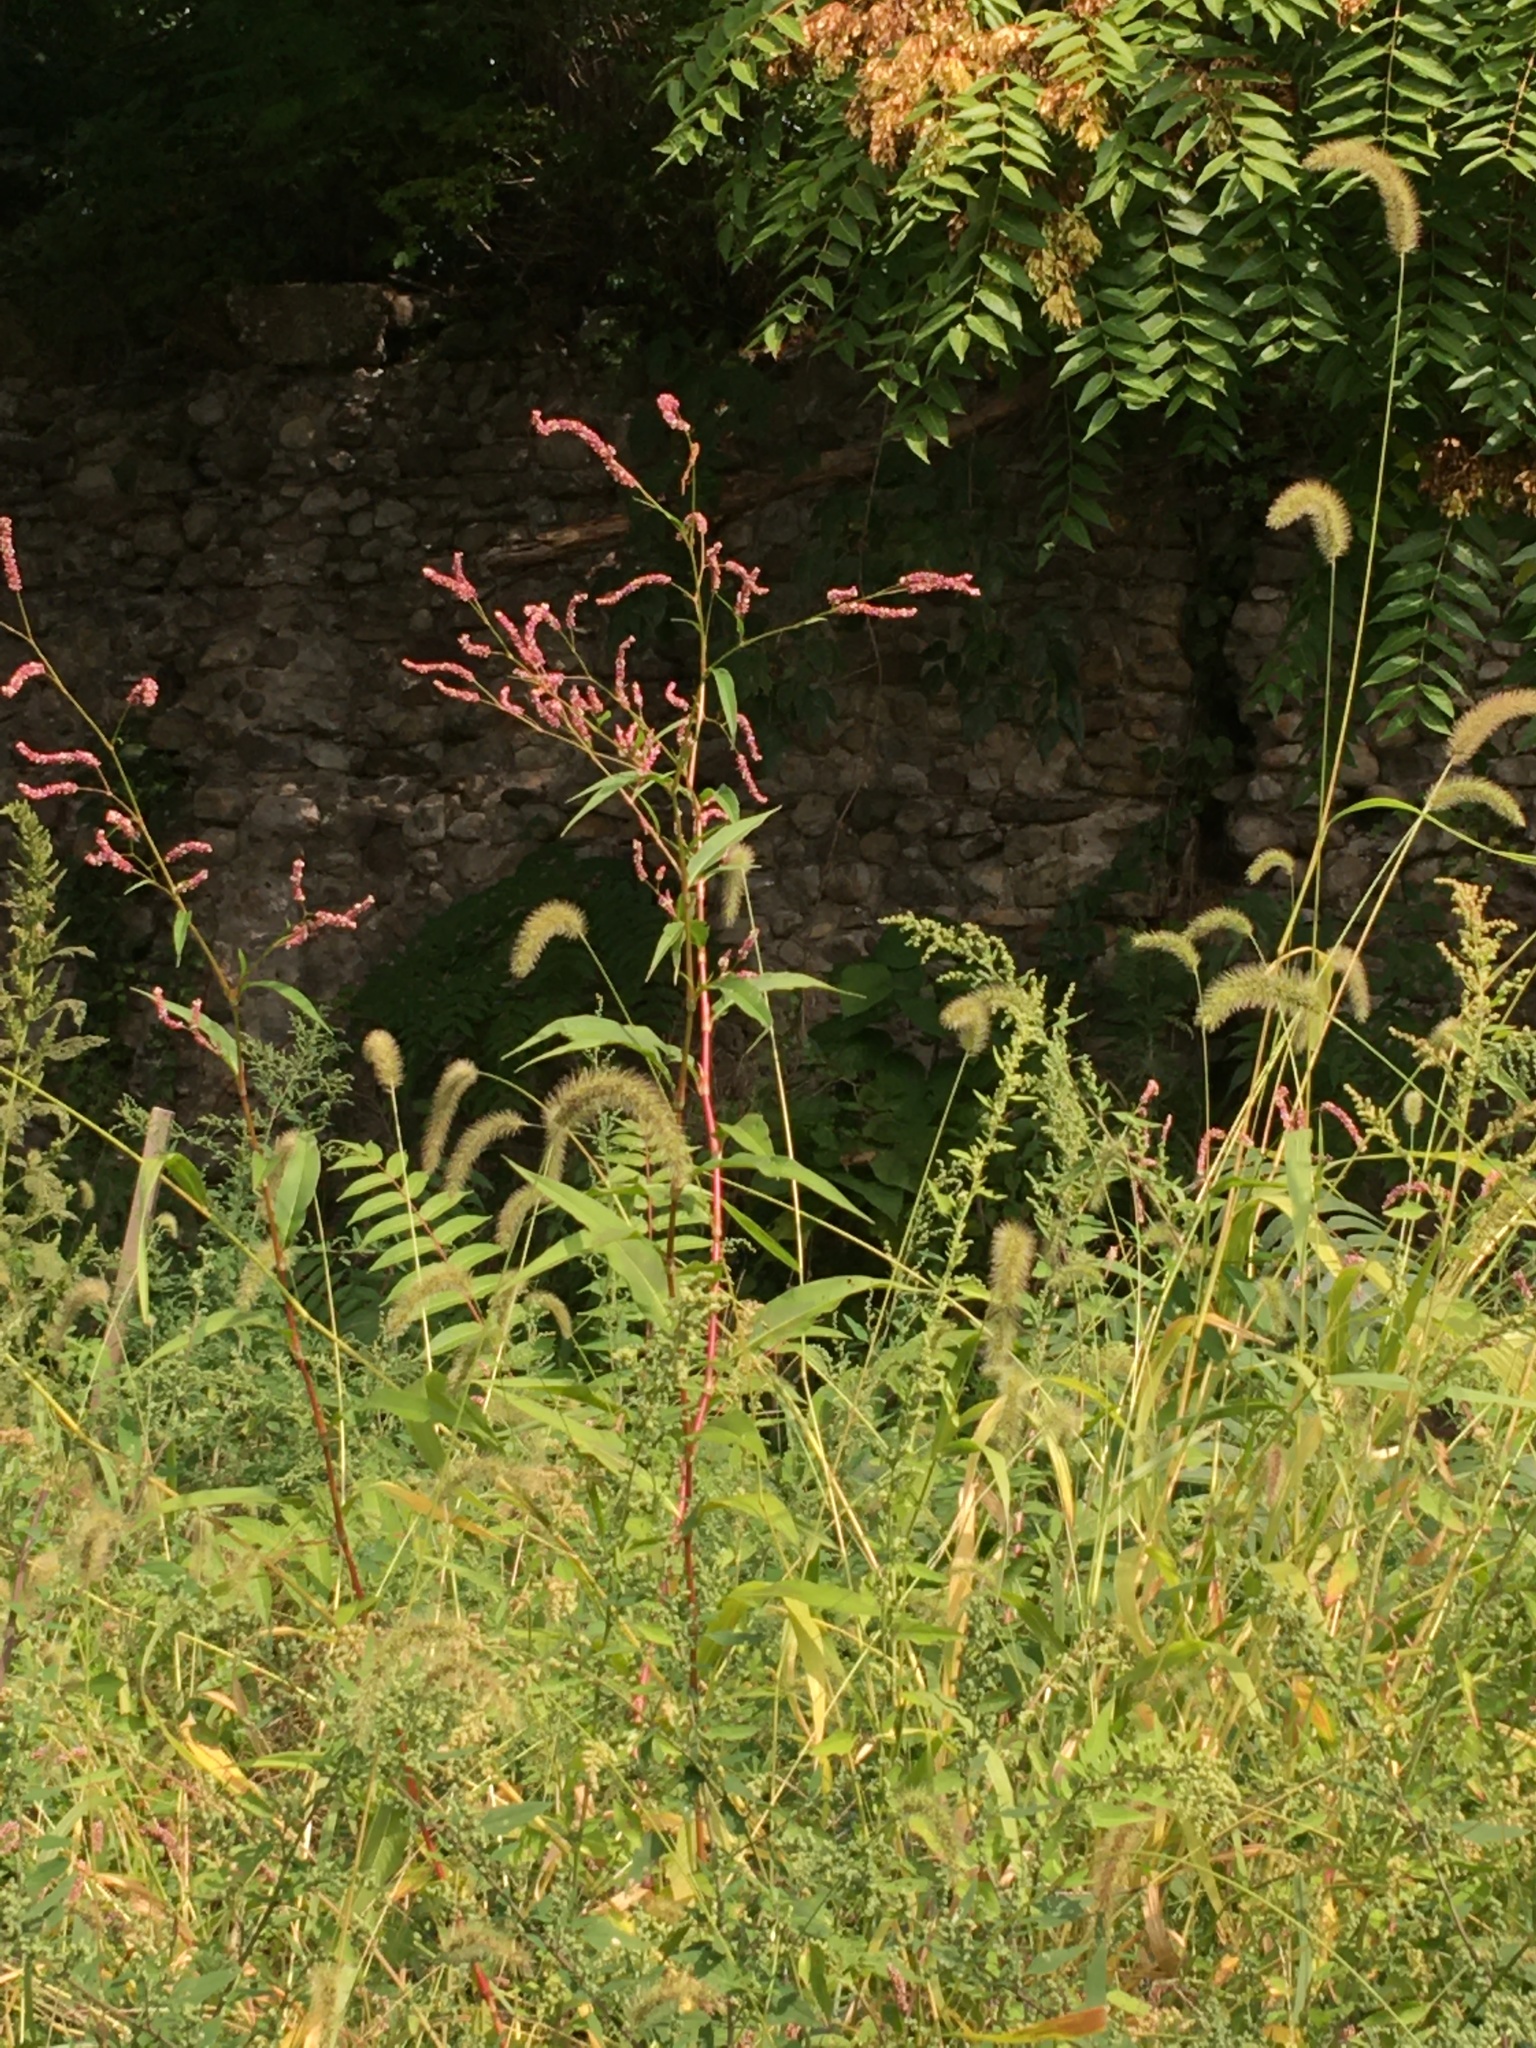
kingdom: Plantae
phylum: Tracheophyta
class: Magnoliopsida
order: Caryophyllales
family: Polygonaceae
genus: Persicaria
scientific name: Persicaria extremiorientalis
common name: Far-eastern smartweed
